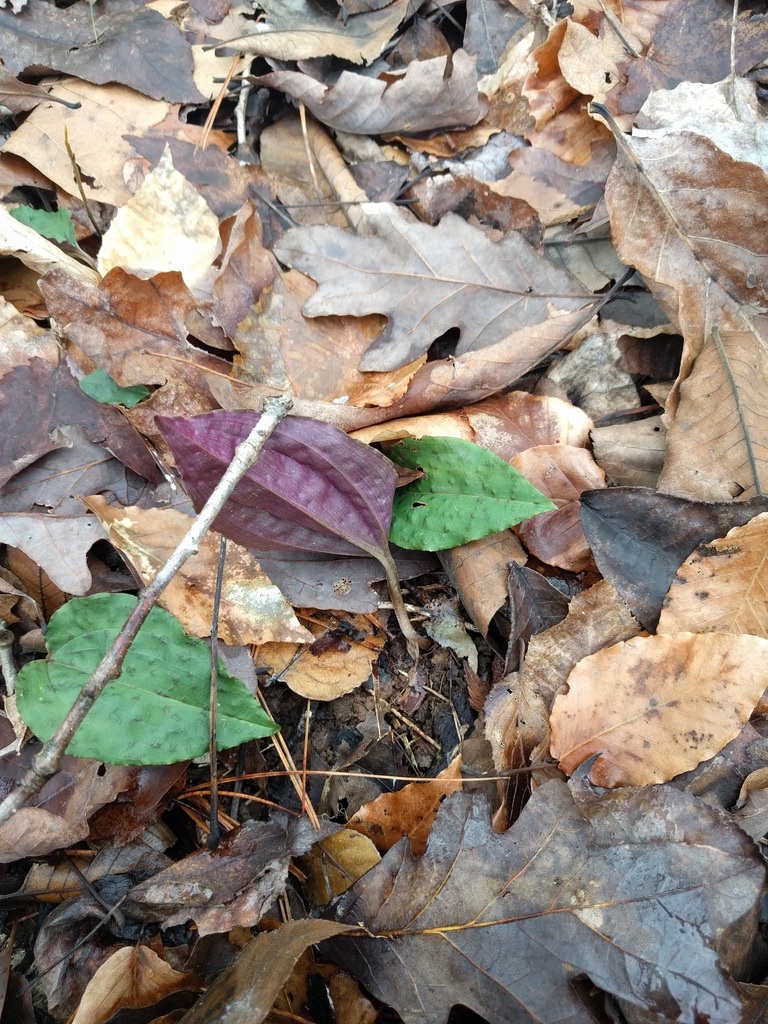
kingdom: Plantae
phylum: Tracheophyta
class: Liliopsida
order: Asparagales
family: Orchidaceae
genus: Tipularia
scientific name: Tipularia discolor
